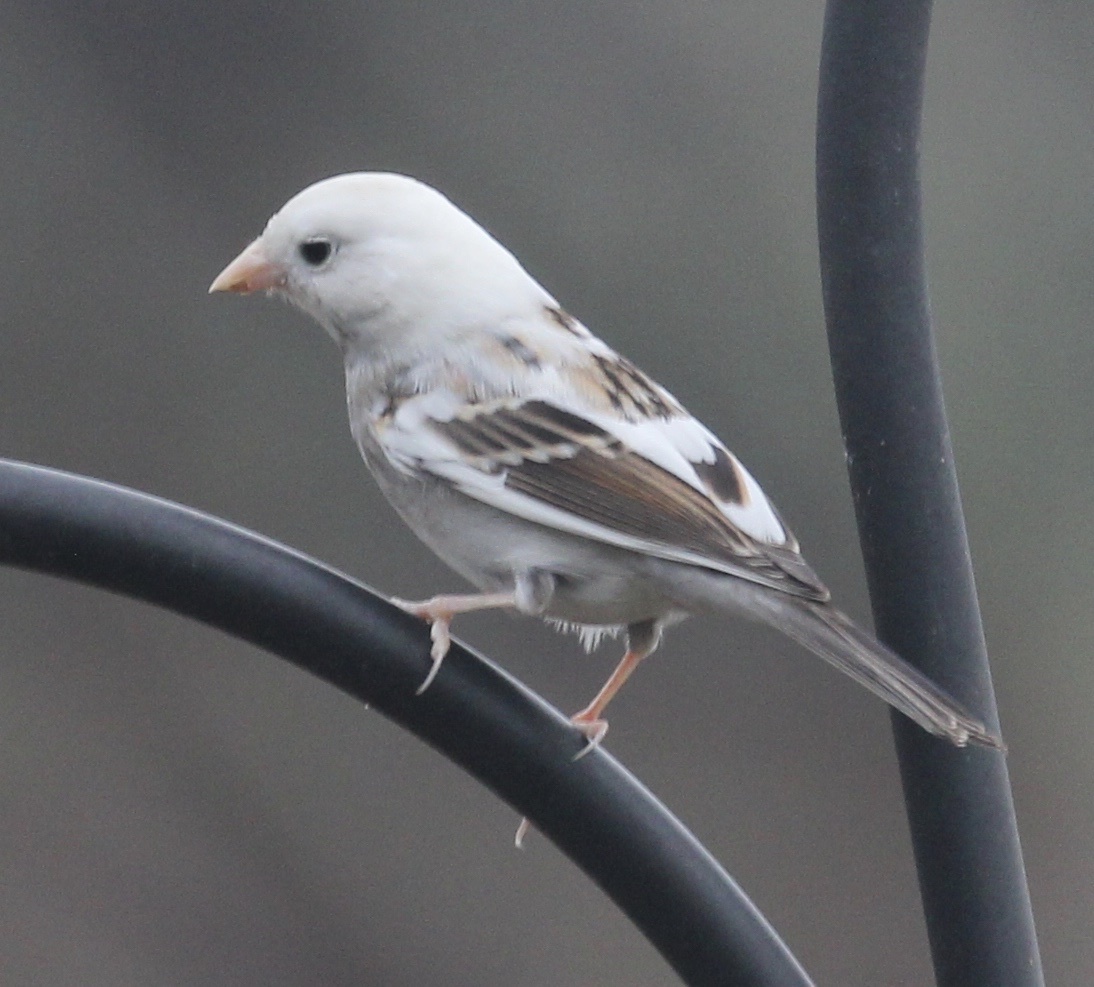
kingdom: Animalia
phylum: Chordata
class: Aves
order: Passeriformes
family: Passerellidae
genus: Spizella
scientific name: Spizella passerina
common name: Chipping sparrow
